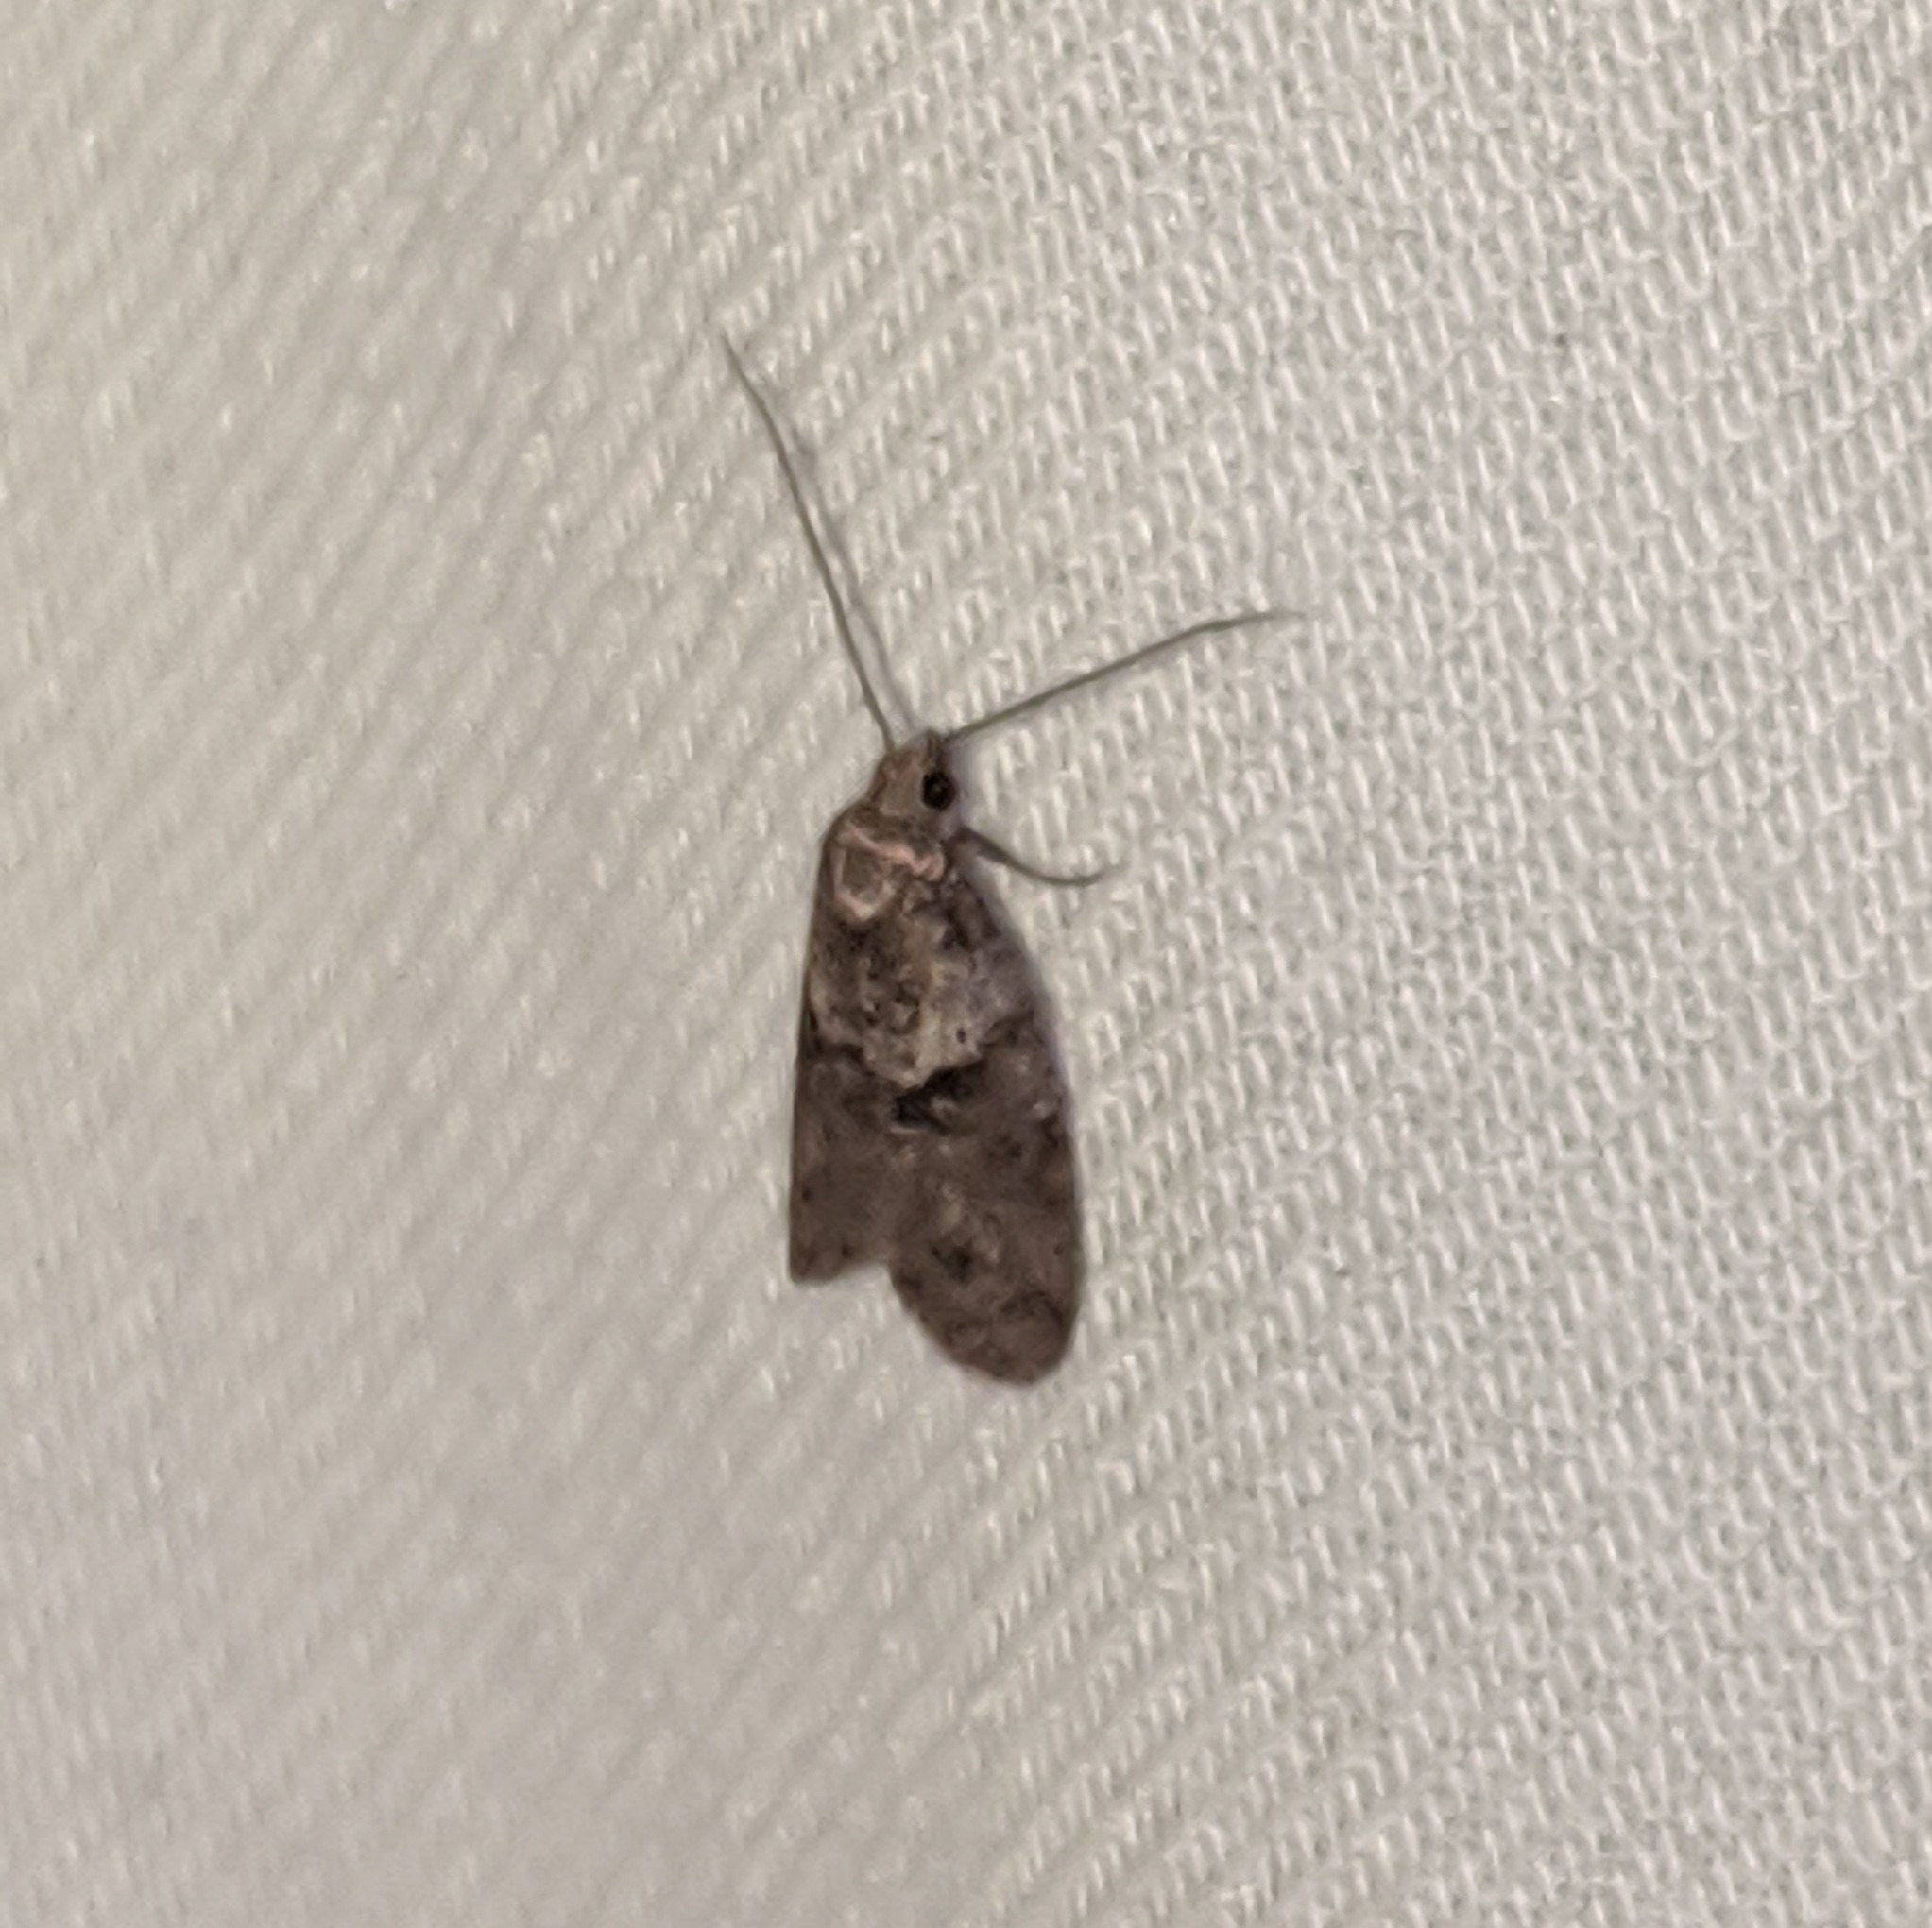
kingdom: Animalia
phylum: Arthropoda
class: Insecta
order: Lepidoptera
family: Copromorphidae
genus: Lotisma
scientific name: Lotisma trigonana
